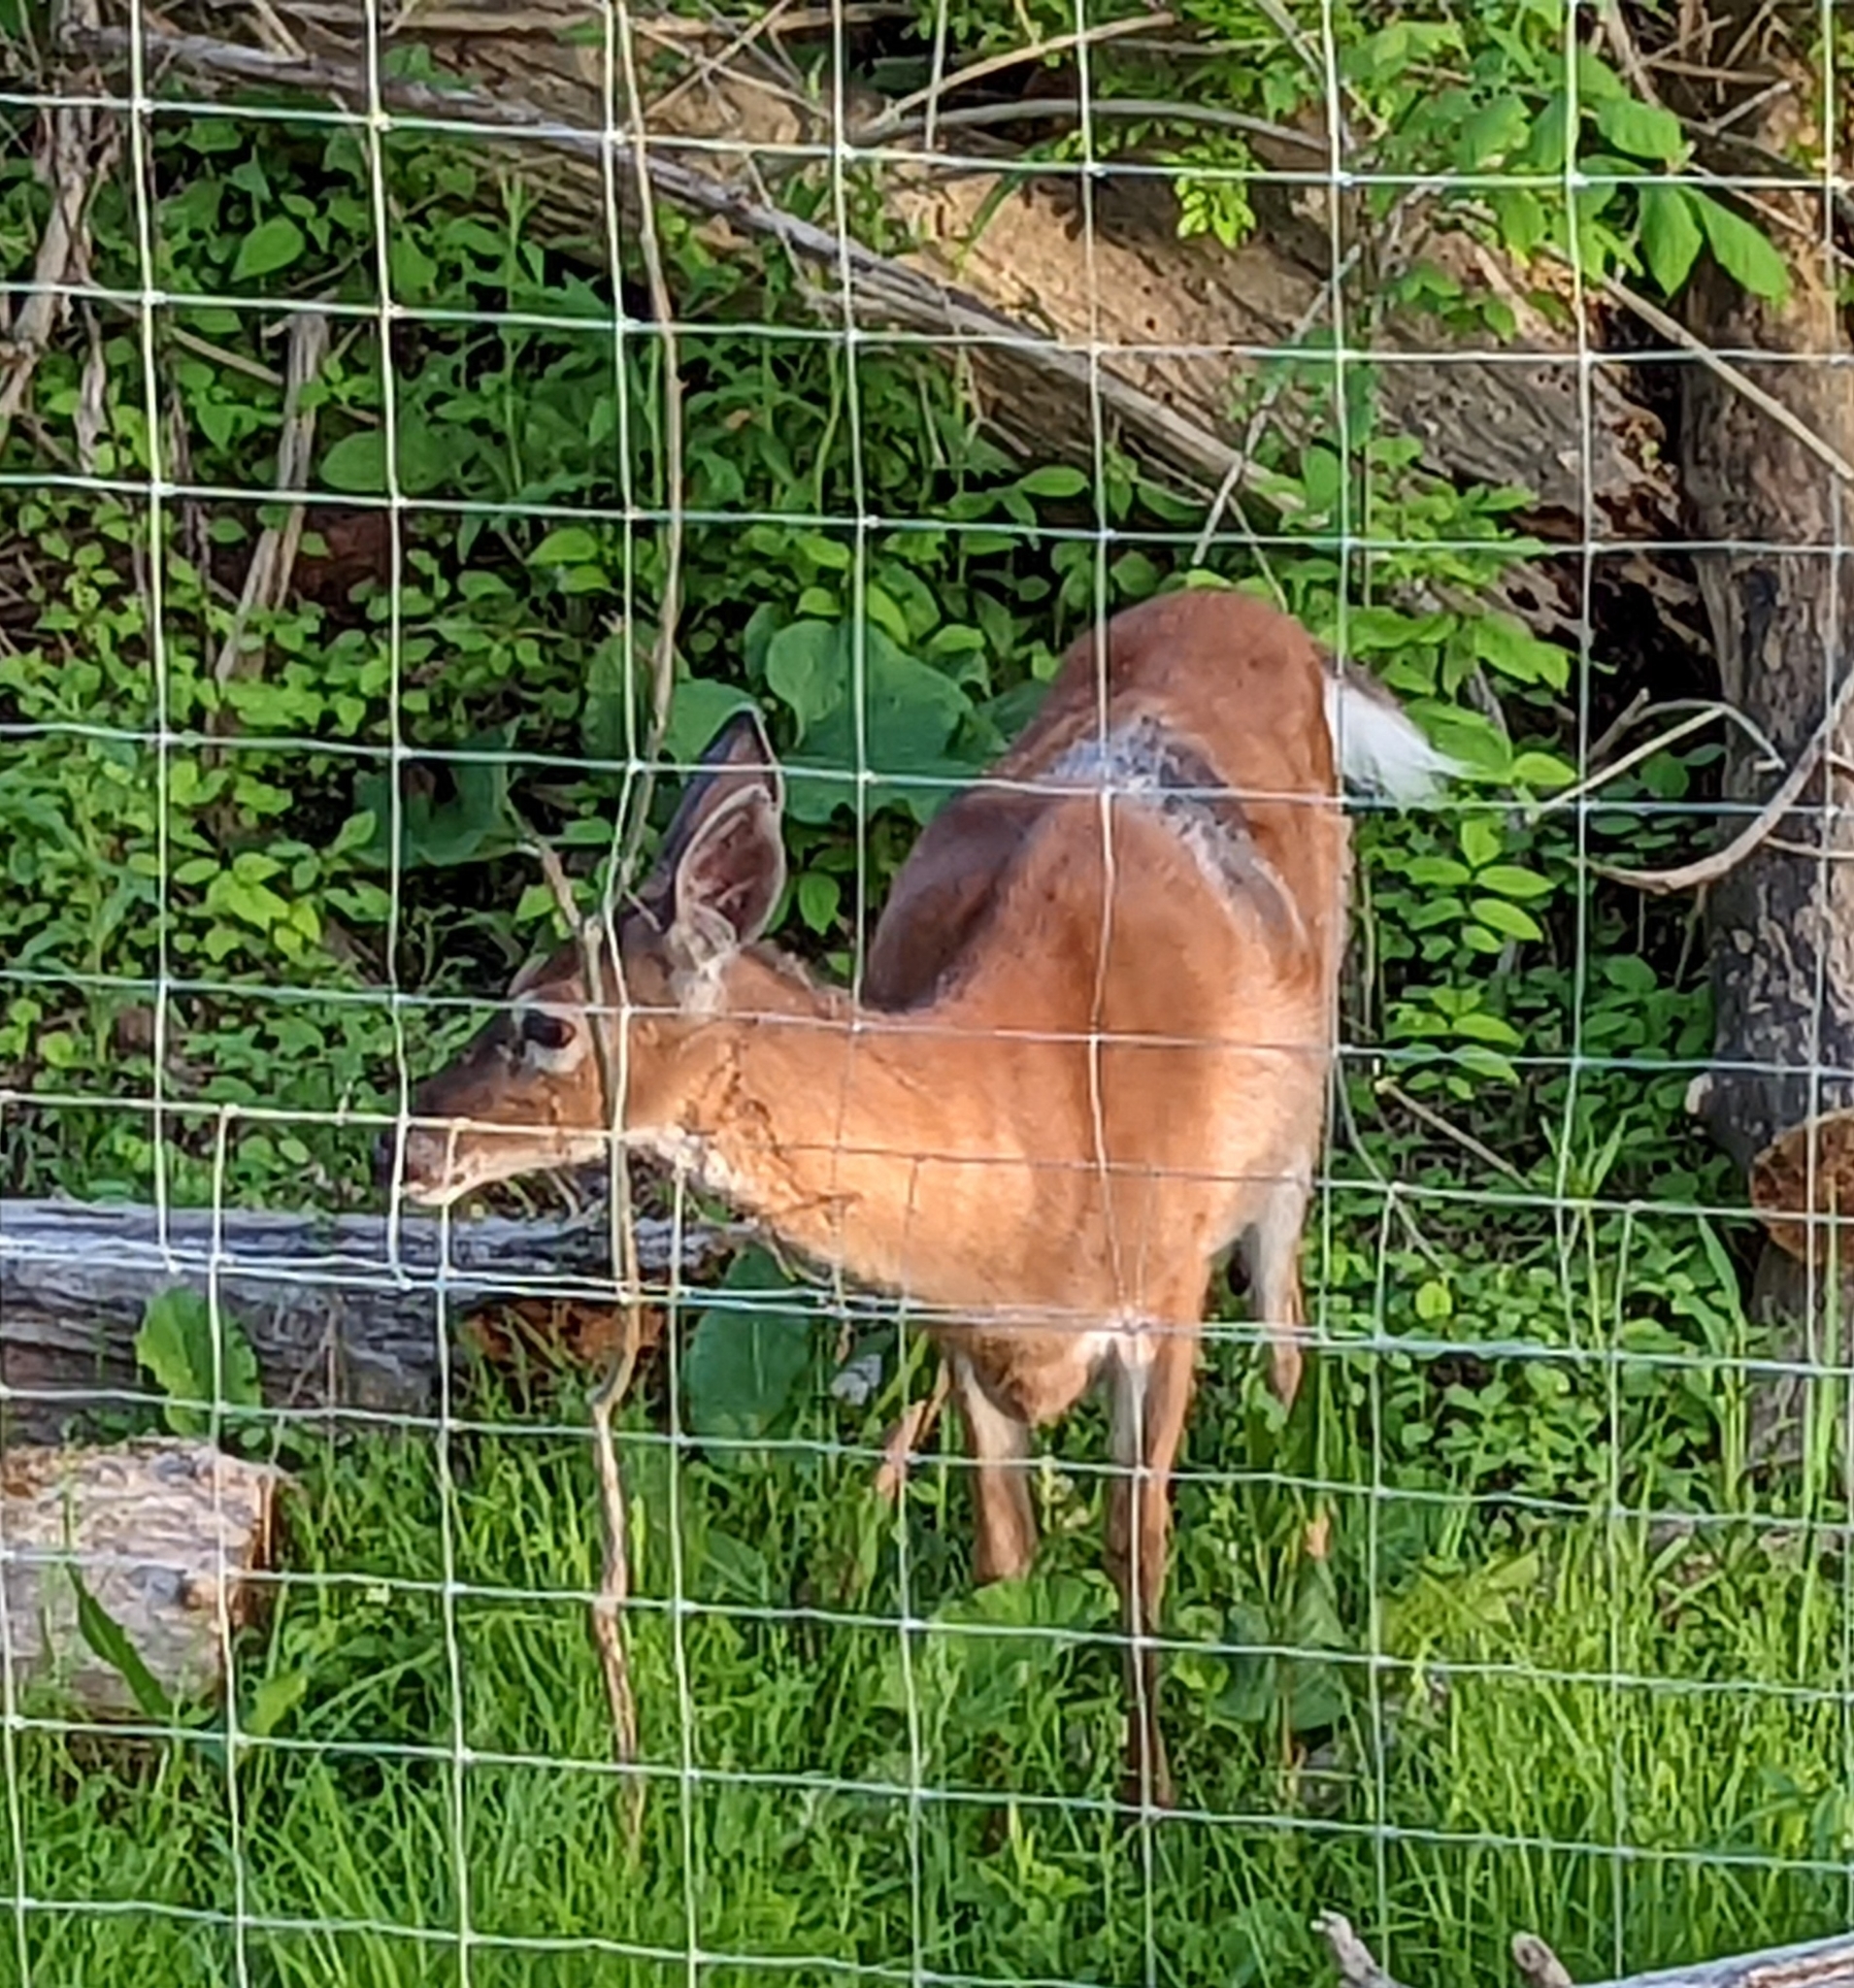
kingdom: Animalia
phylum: Chordata
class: Mammalia
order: Artiodactyla
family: Cervidae
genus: Odocoileus
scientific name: Odocoileus virginianus
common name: White-tailed deer
